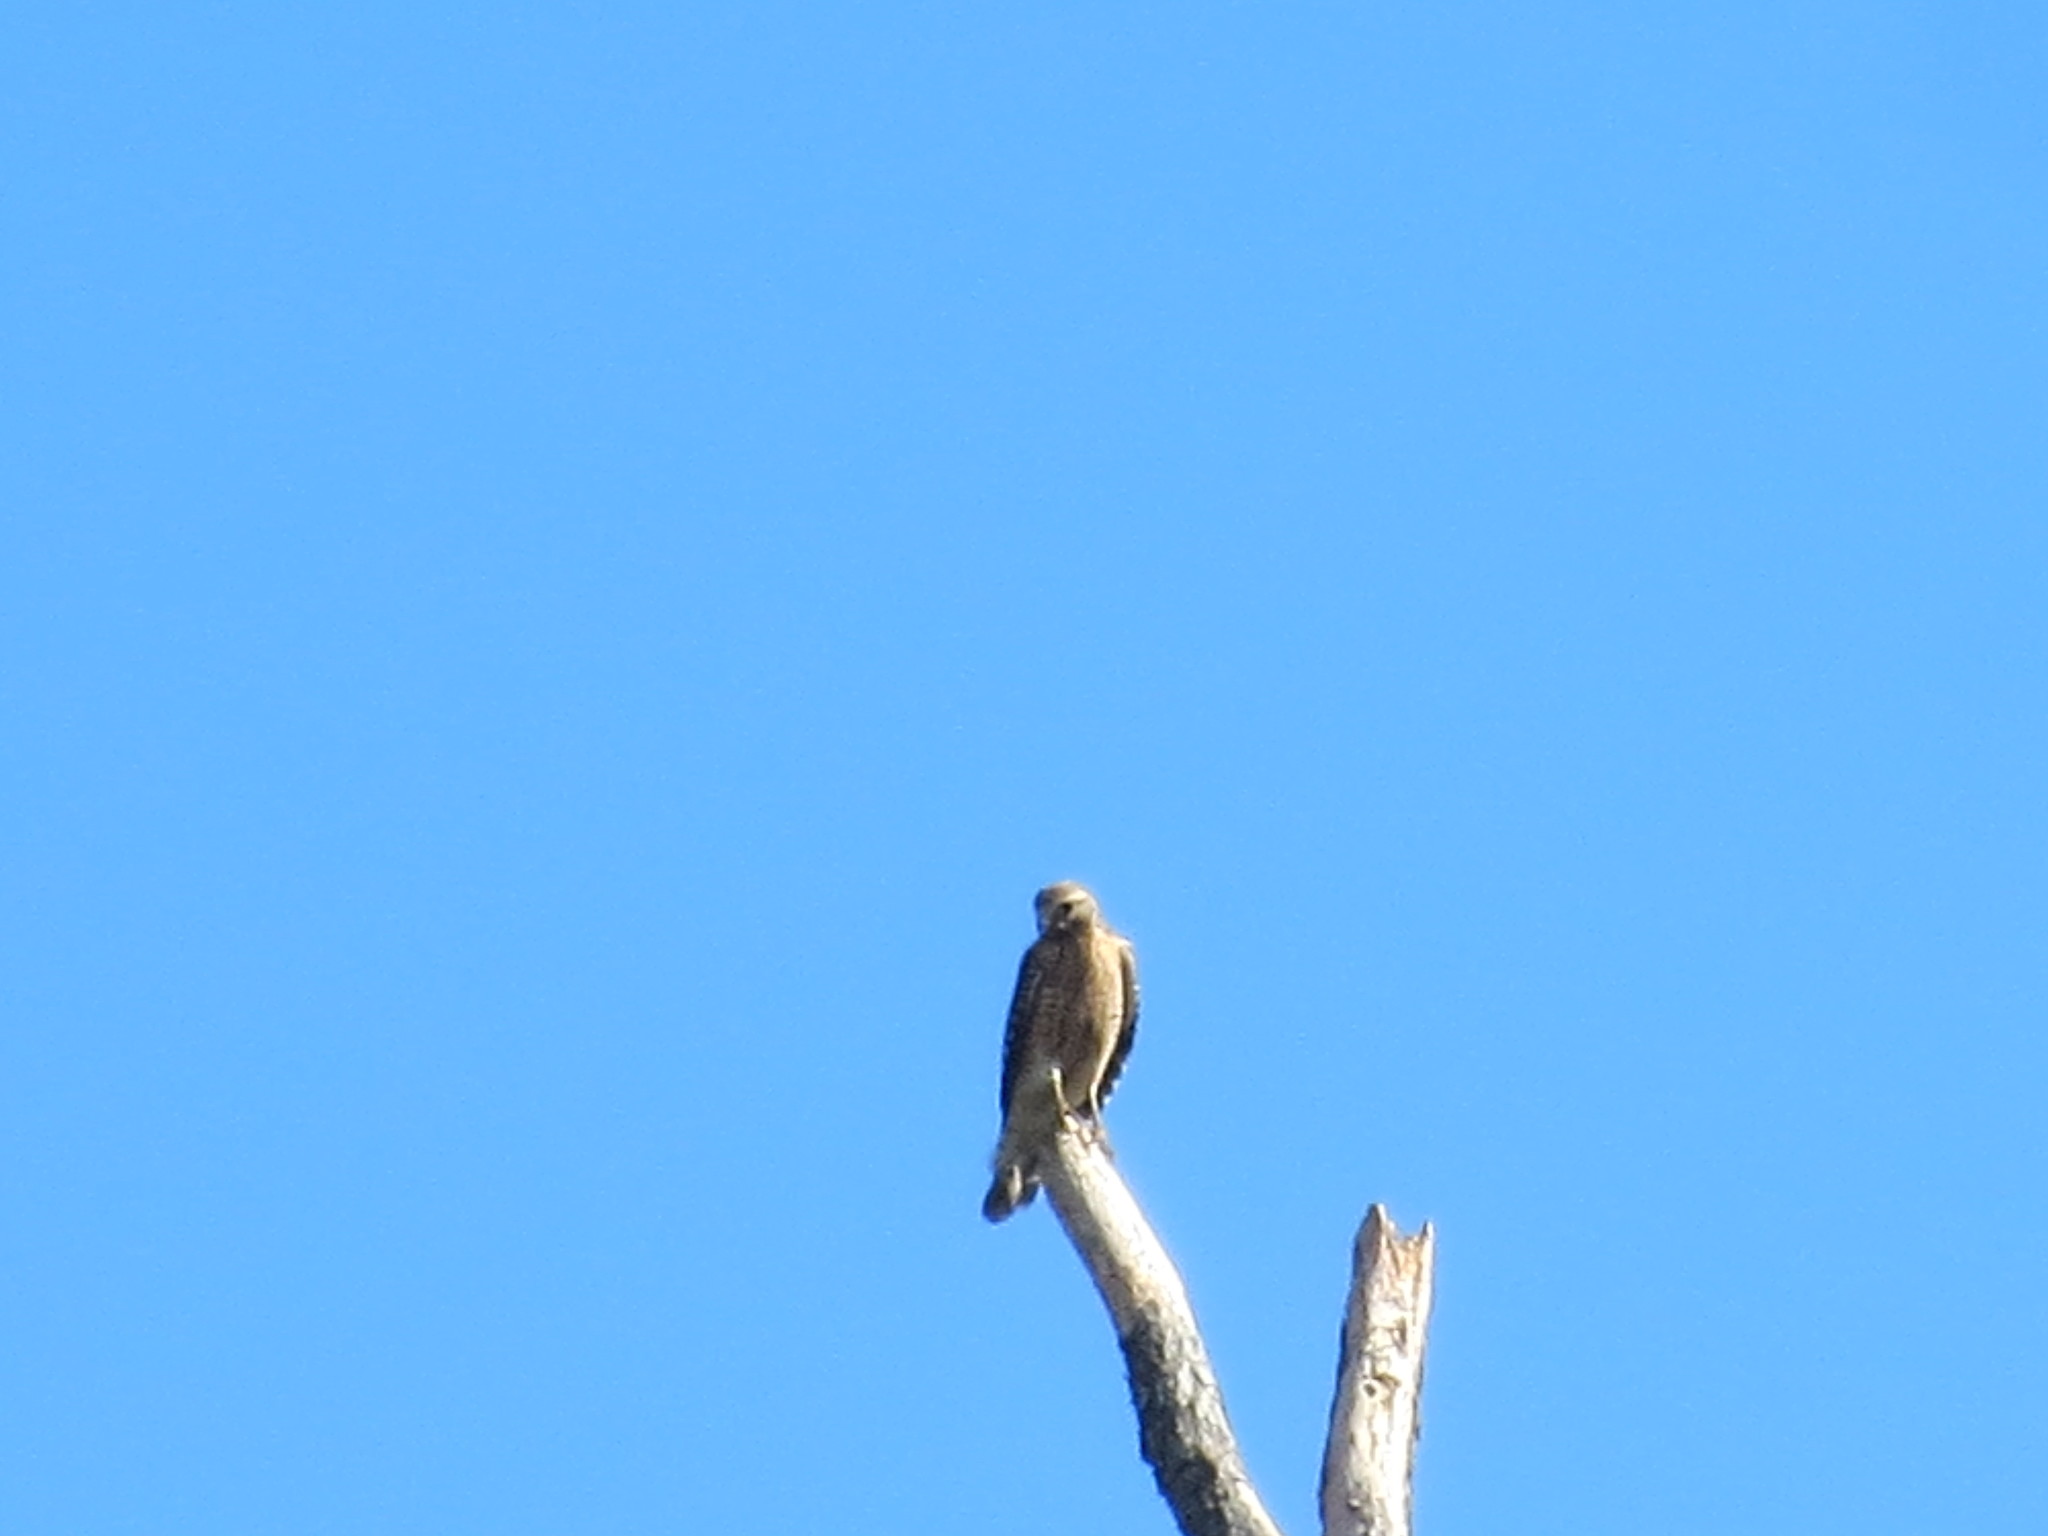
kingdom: Animalia
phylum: Chordata
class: Aves
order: Accipitriformes
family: Accipitridae
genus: Buteo
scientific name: Buteo lineatus
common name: Red-shouldered hawk
